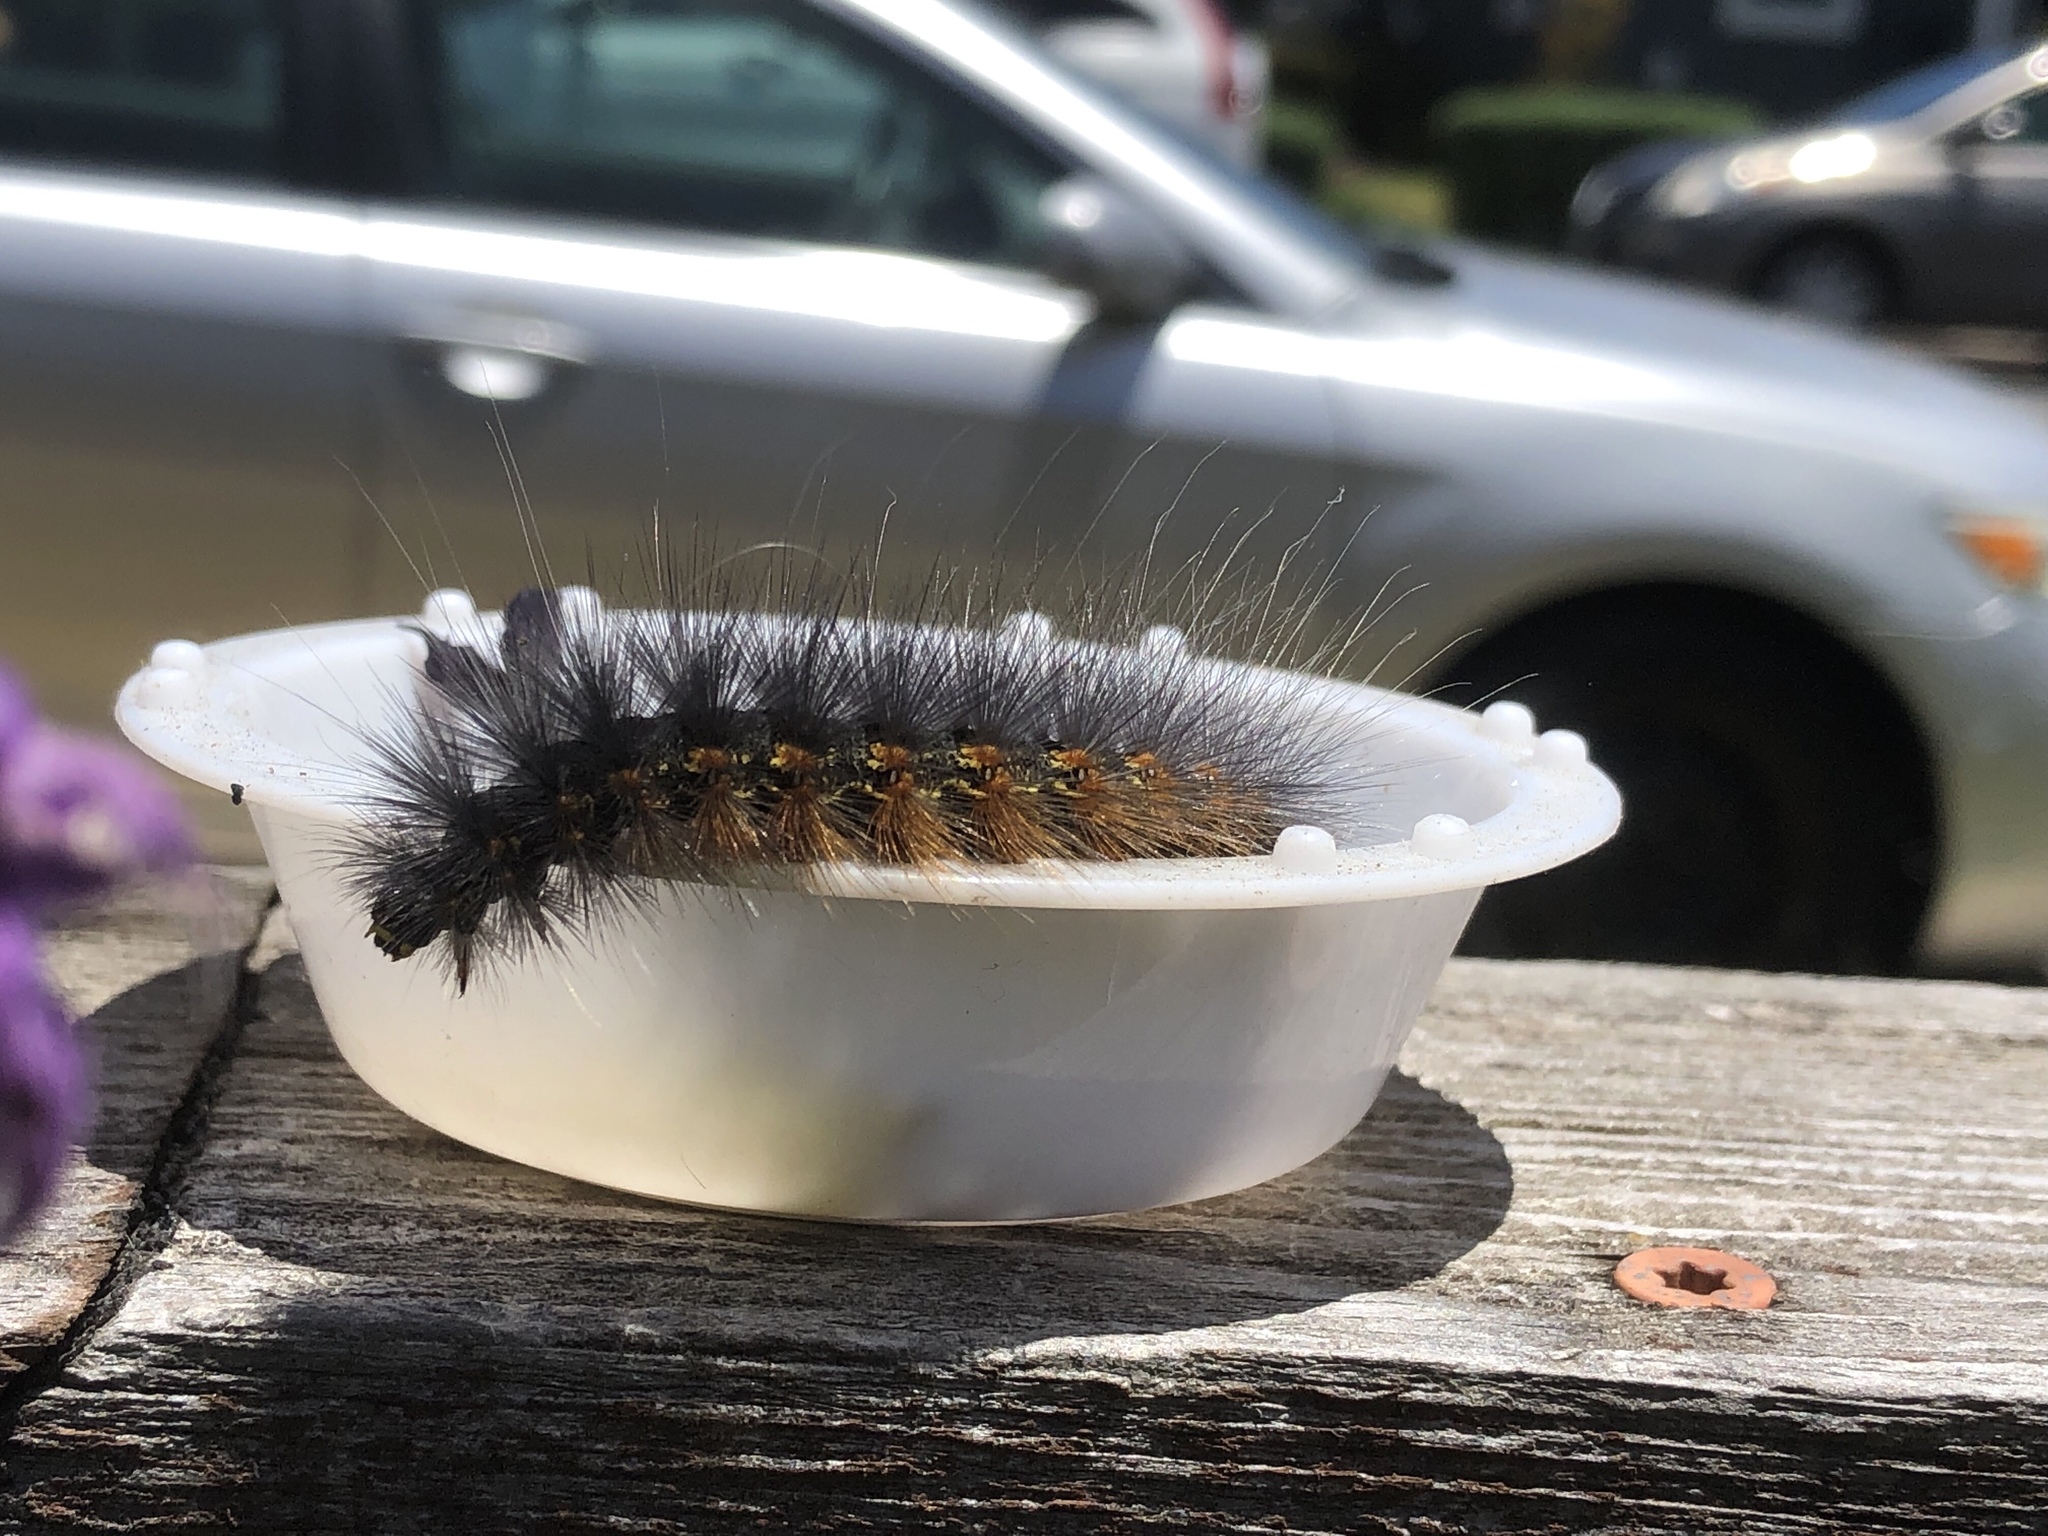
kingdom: Animalia
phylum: Arthropoda
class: Insecta
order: Lepidoptera
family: Erebidae
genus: Estigmene
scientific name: Estigmene acrea
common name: Salt marsh moth
